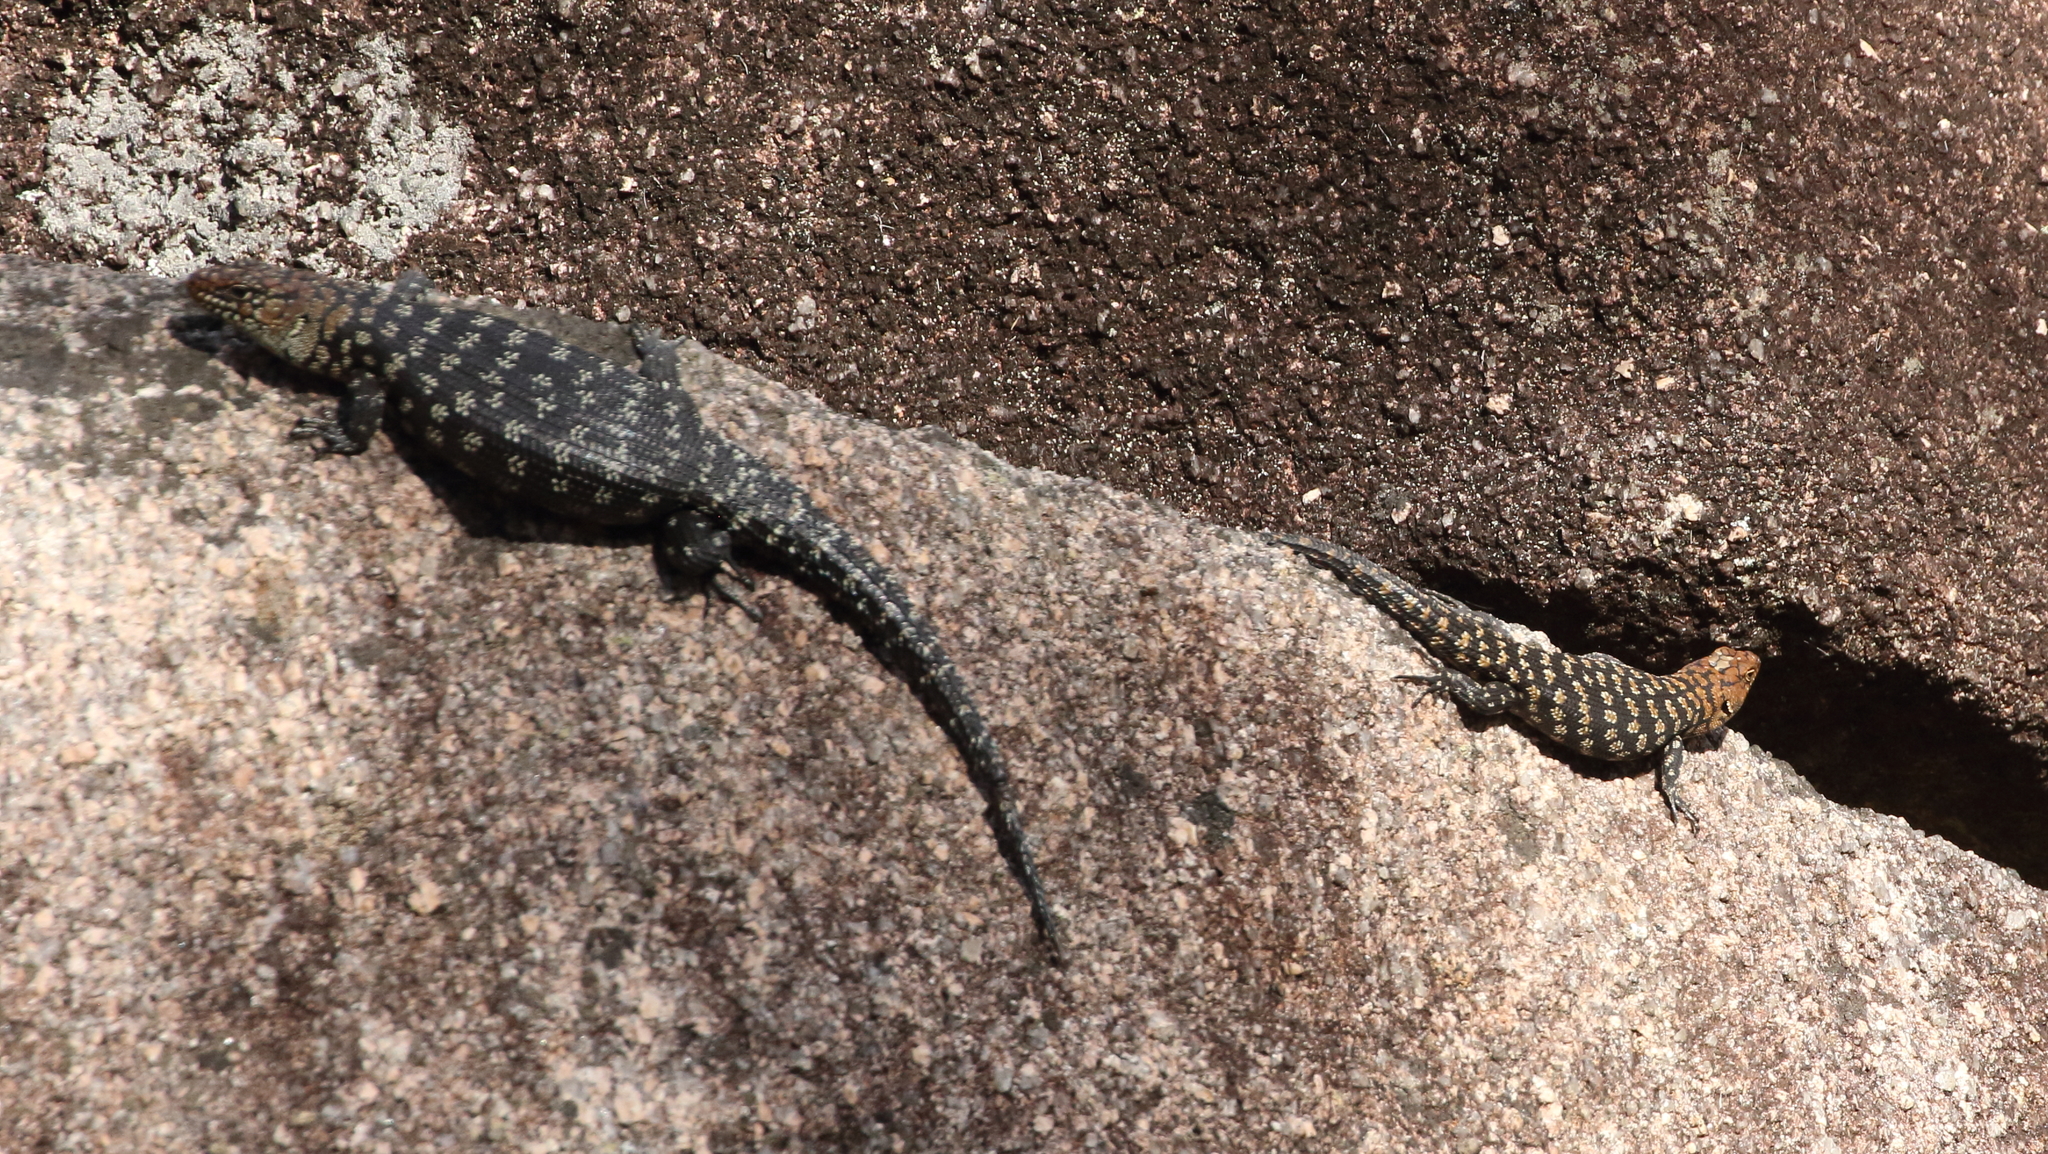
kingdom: Animalia
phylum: Chordata
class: Squamata
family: Scincidae
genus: Egernia
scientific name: Egernia cunninghami
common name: Cunningham's skink
